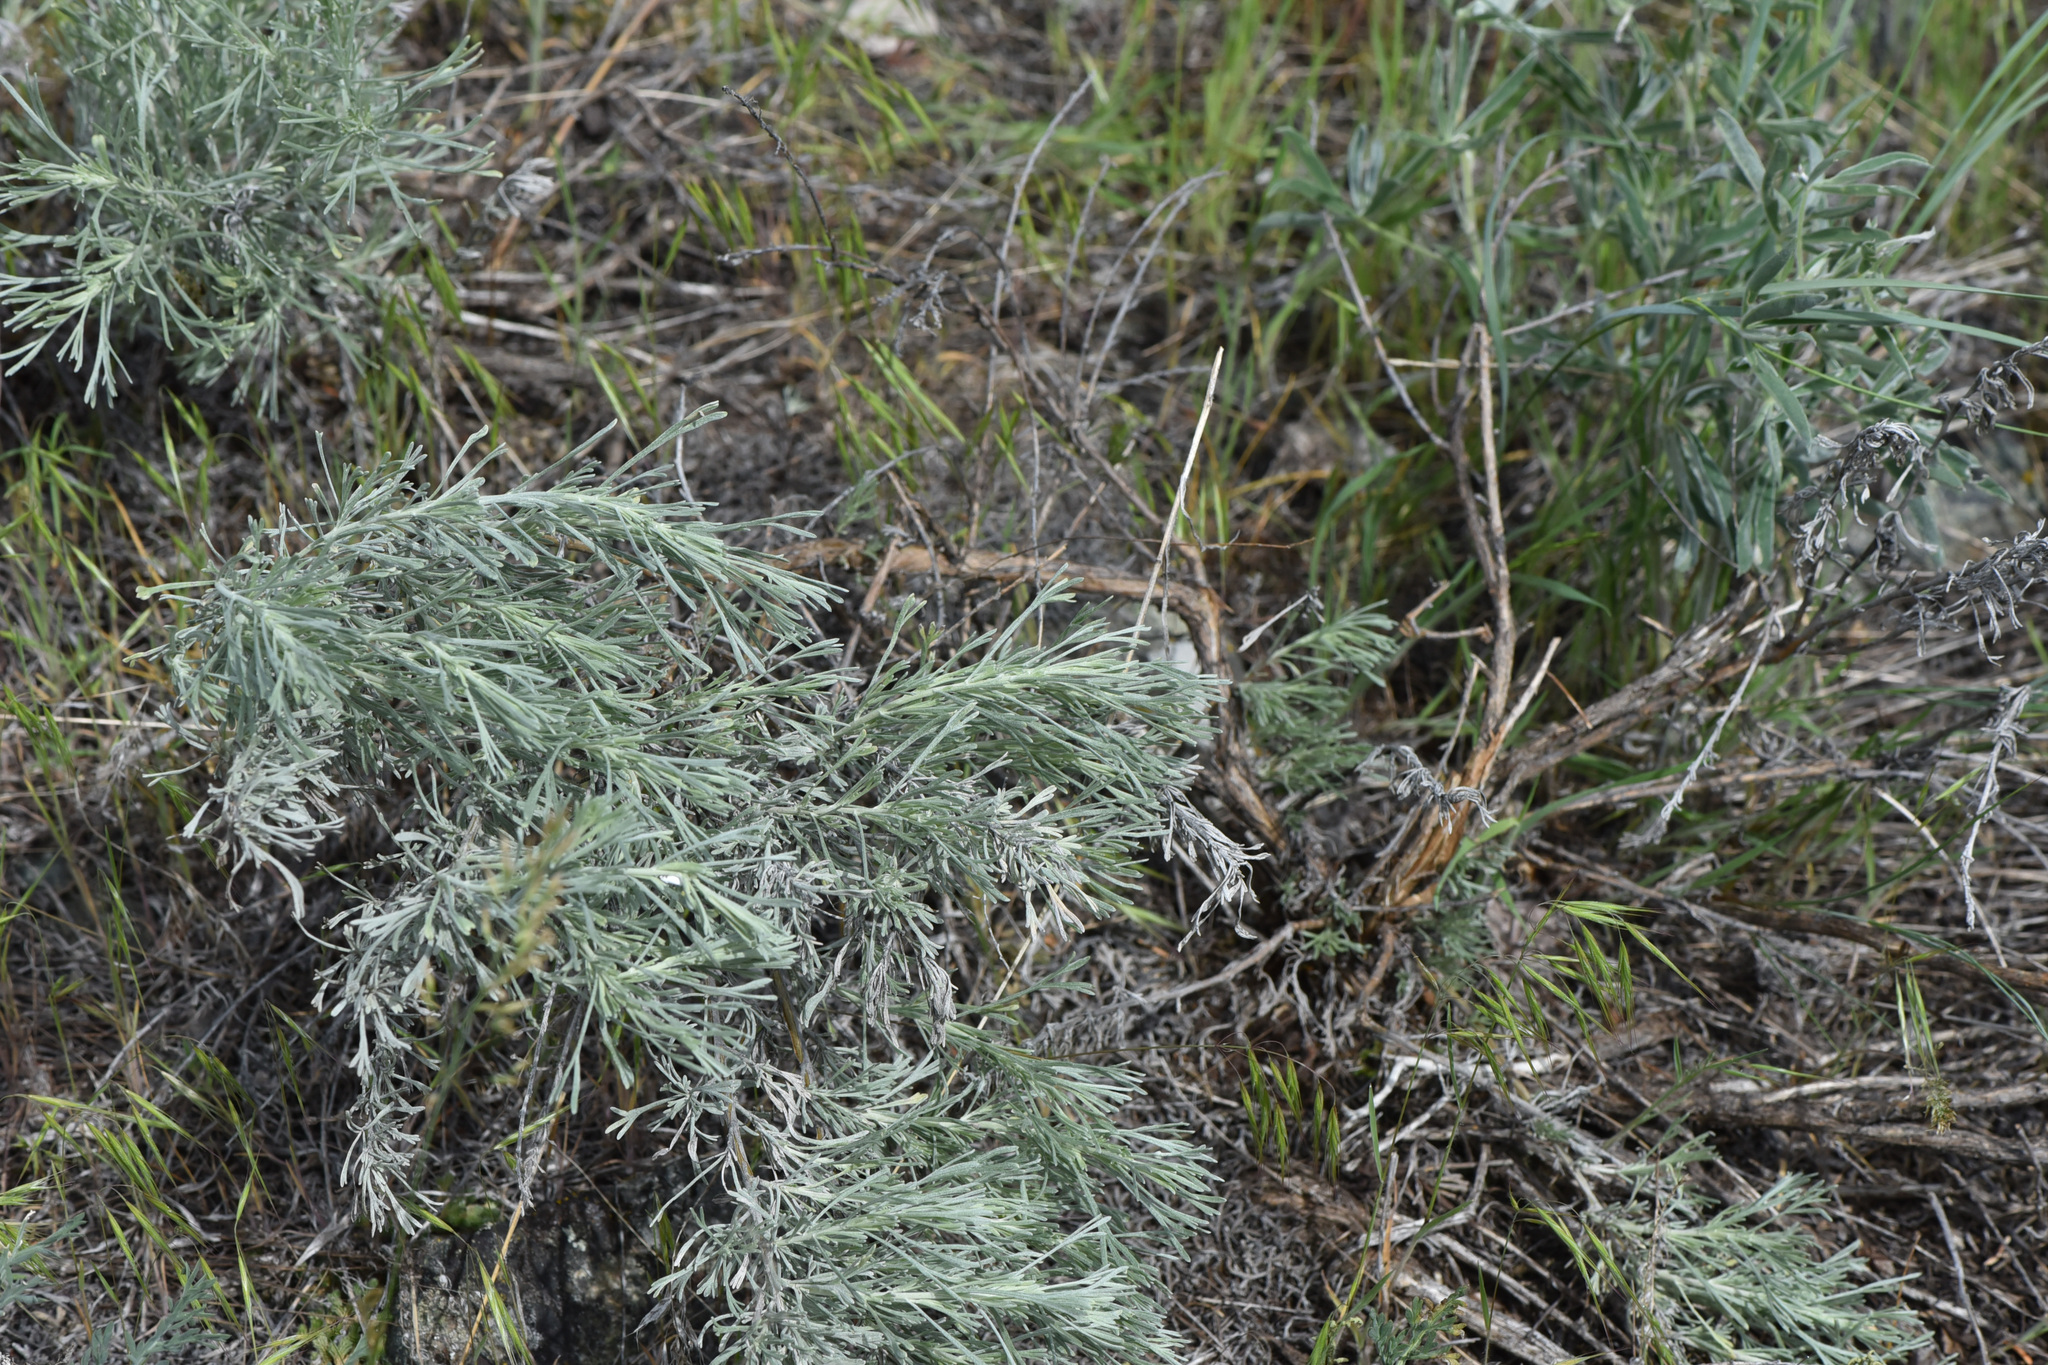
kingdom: Plantae
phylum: Tracheophyta
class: Magnoliopsida
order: Asterales
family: Asteraceae
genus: Artemisia
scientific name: Artemisia tripartita
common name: Three-tip sagebrush
